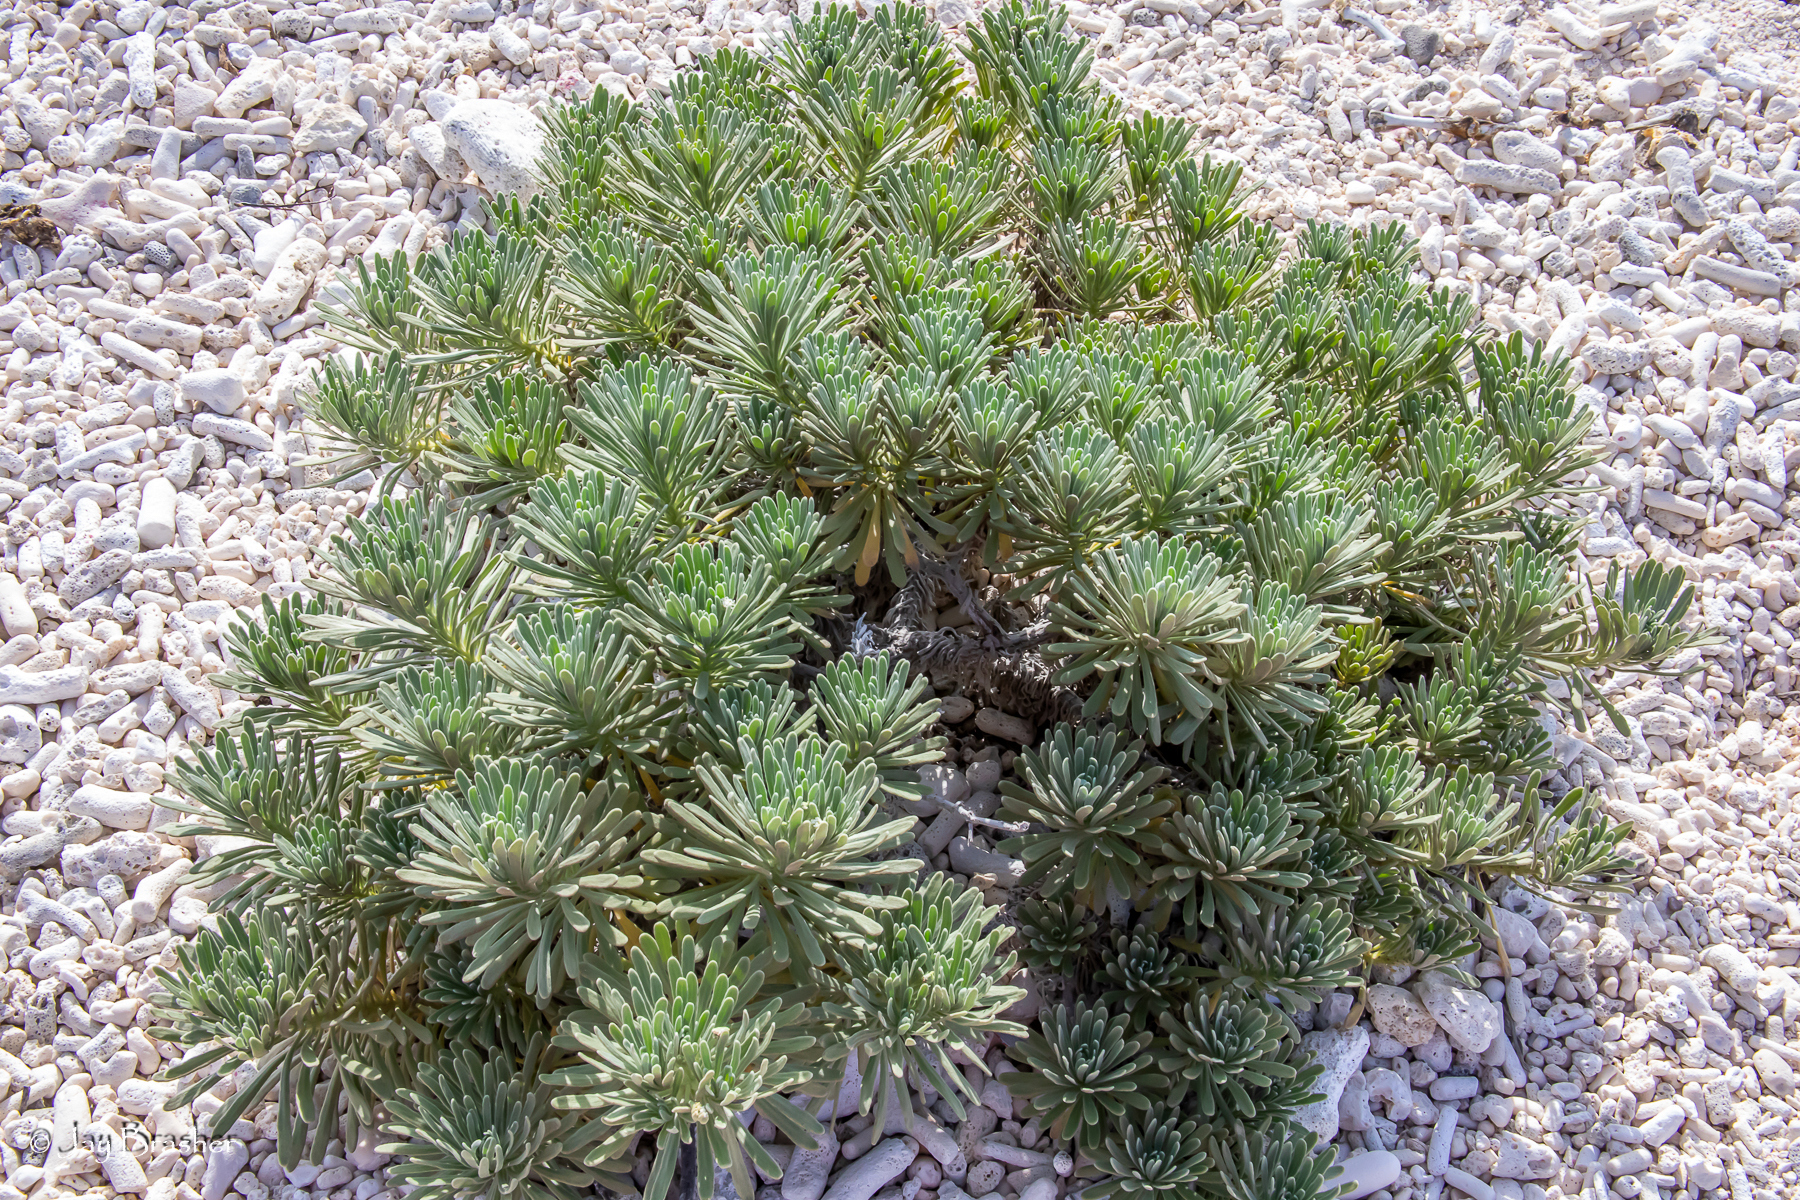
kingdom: Plantae
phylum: Tracheophyta
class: Magnoliopsida
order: Boraginales
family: Heliotropiaceae
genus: Tournefortia
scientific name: Tournefortia gnaphalodes
